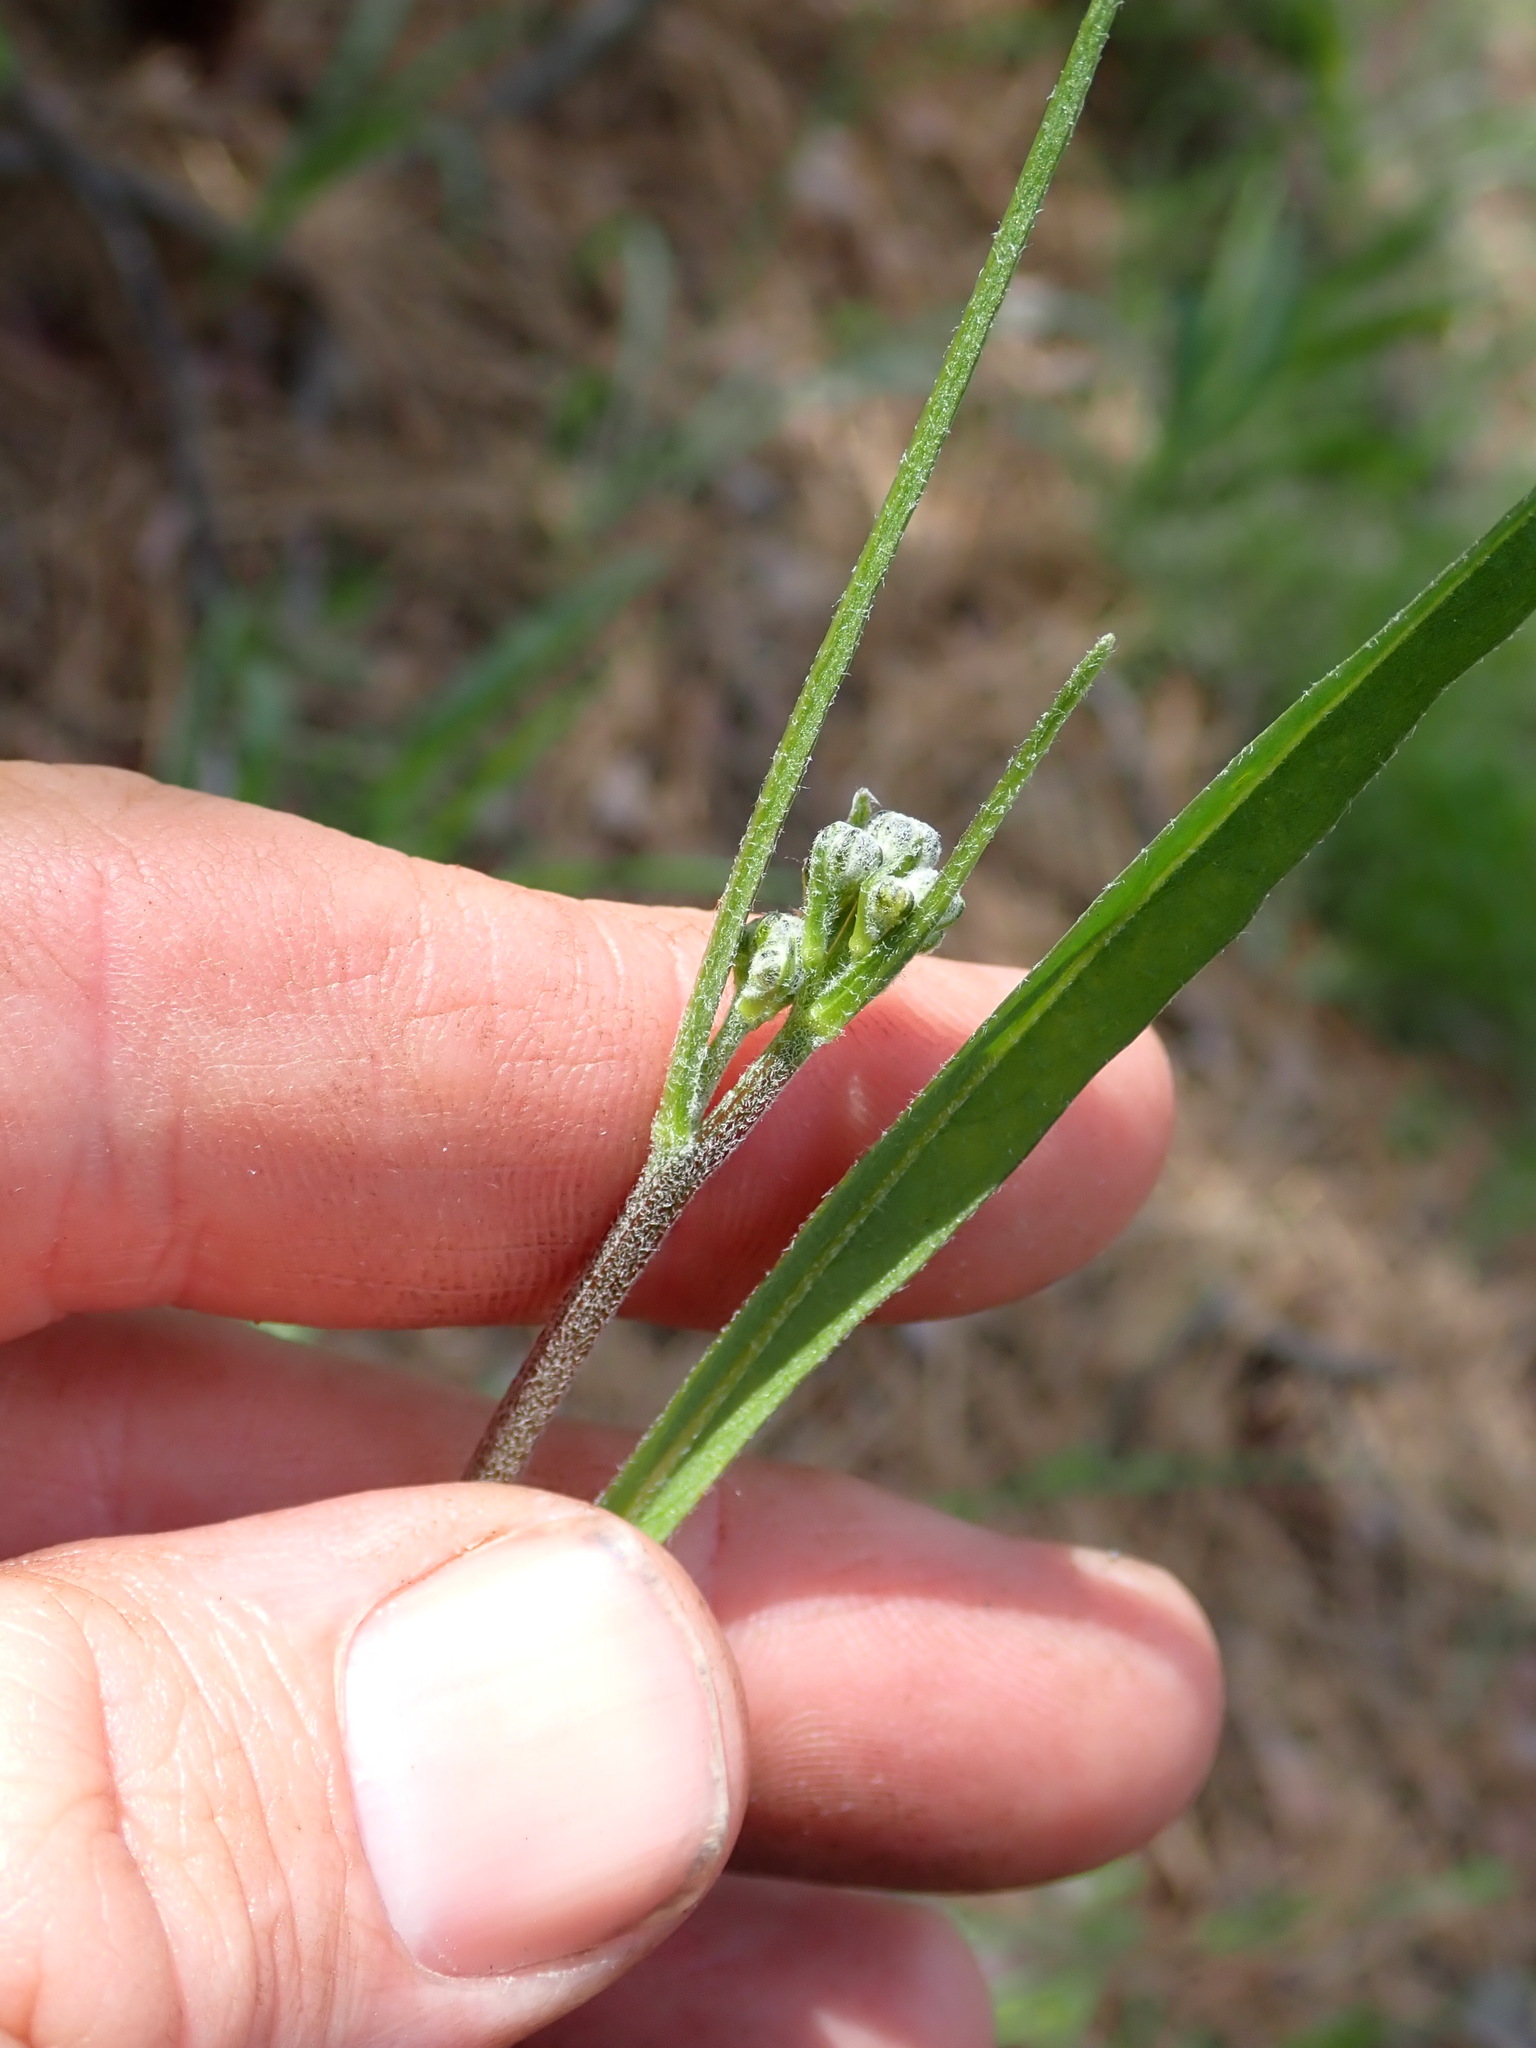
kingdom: Plantae
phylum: Tracheophyta
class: Magnoliopsida
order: Asterales
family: Asteraceae
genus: Crepis
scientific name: Crepis atribarba
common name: Dark hawk's-beard
